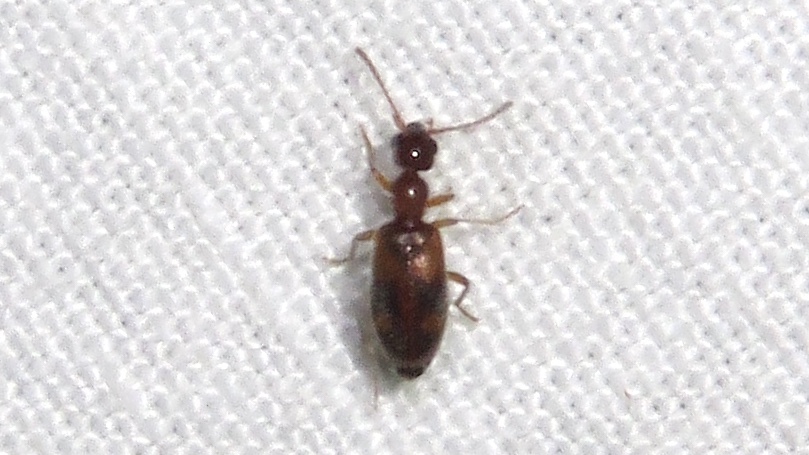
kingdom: Animalia
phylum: Arthropoda
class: Insecta
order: Coleoptera
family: Anthicidae
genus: Anthicus
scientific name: Anthicus cervinus
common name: Cloudy flower beetle
